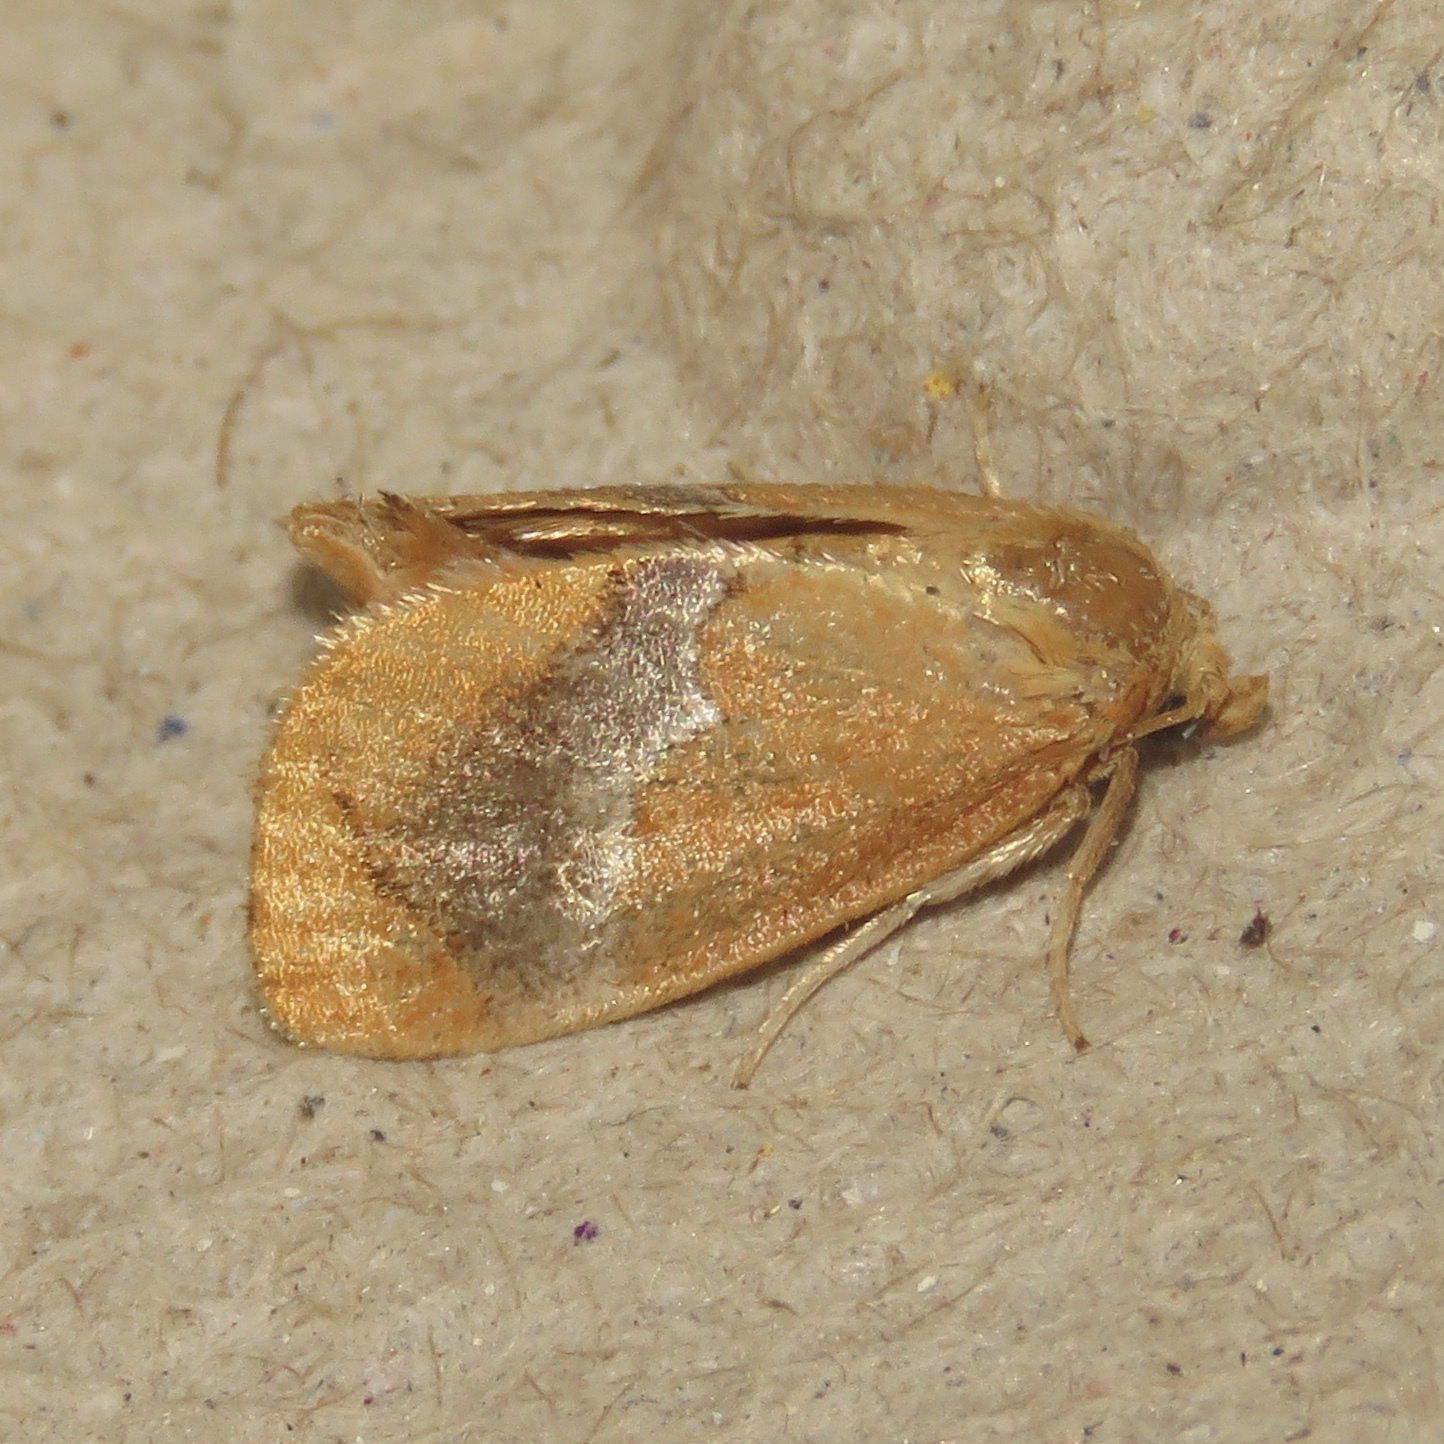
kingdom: Animalia
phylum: Arthropoda
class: Insecta
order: Lepidoptera
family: Limacodidae
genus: Lithacodes
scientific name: Lithacodes fasciola
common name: Yellow-shouldered slug moth
